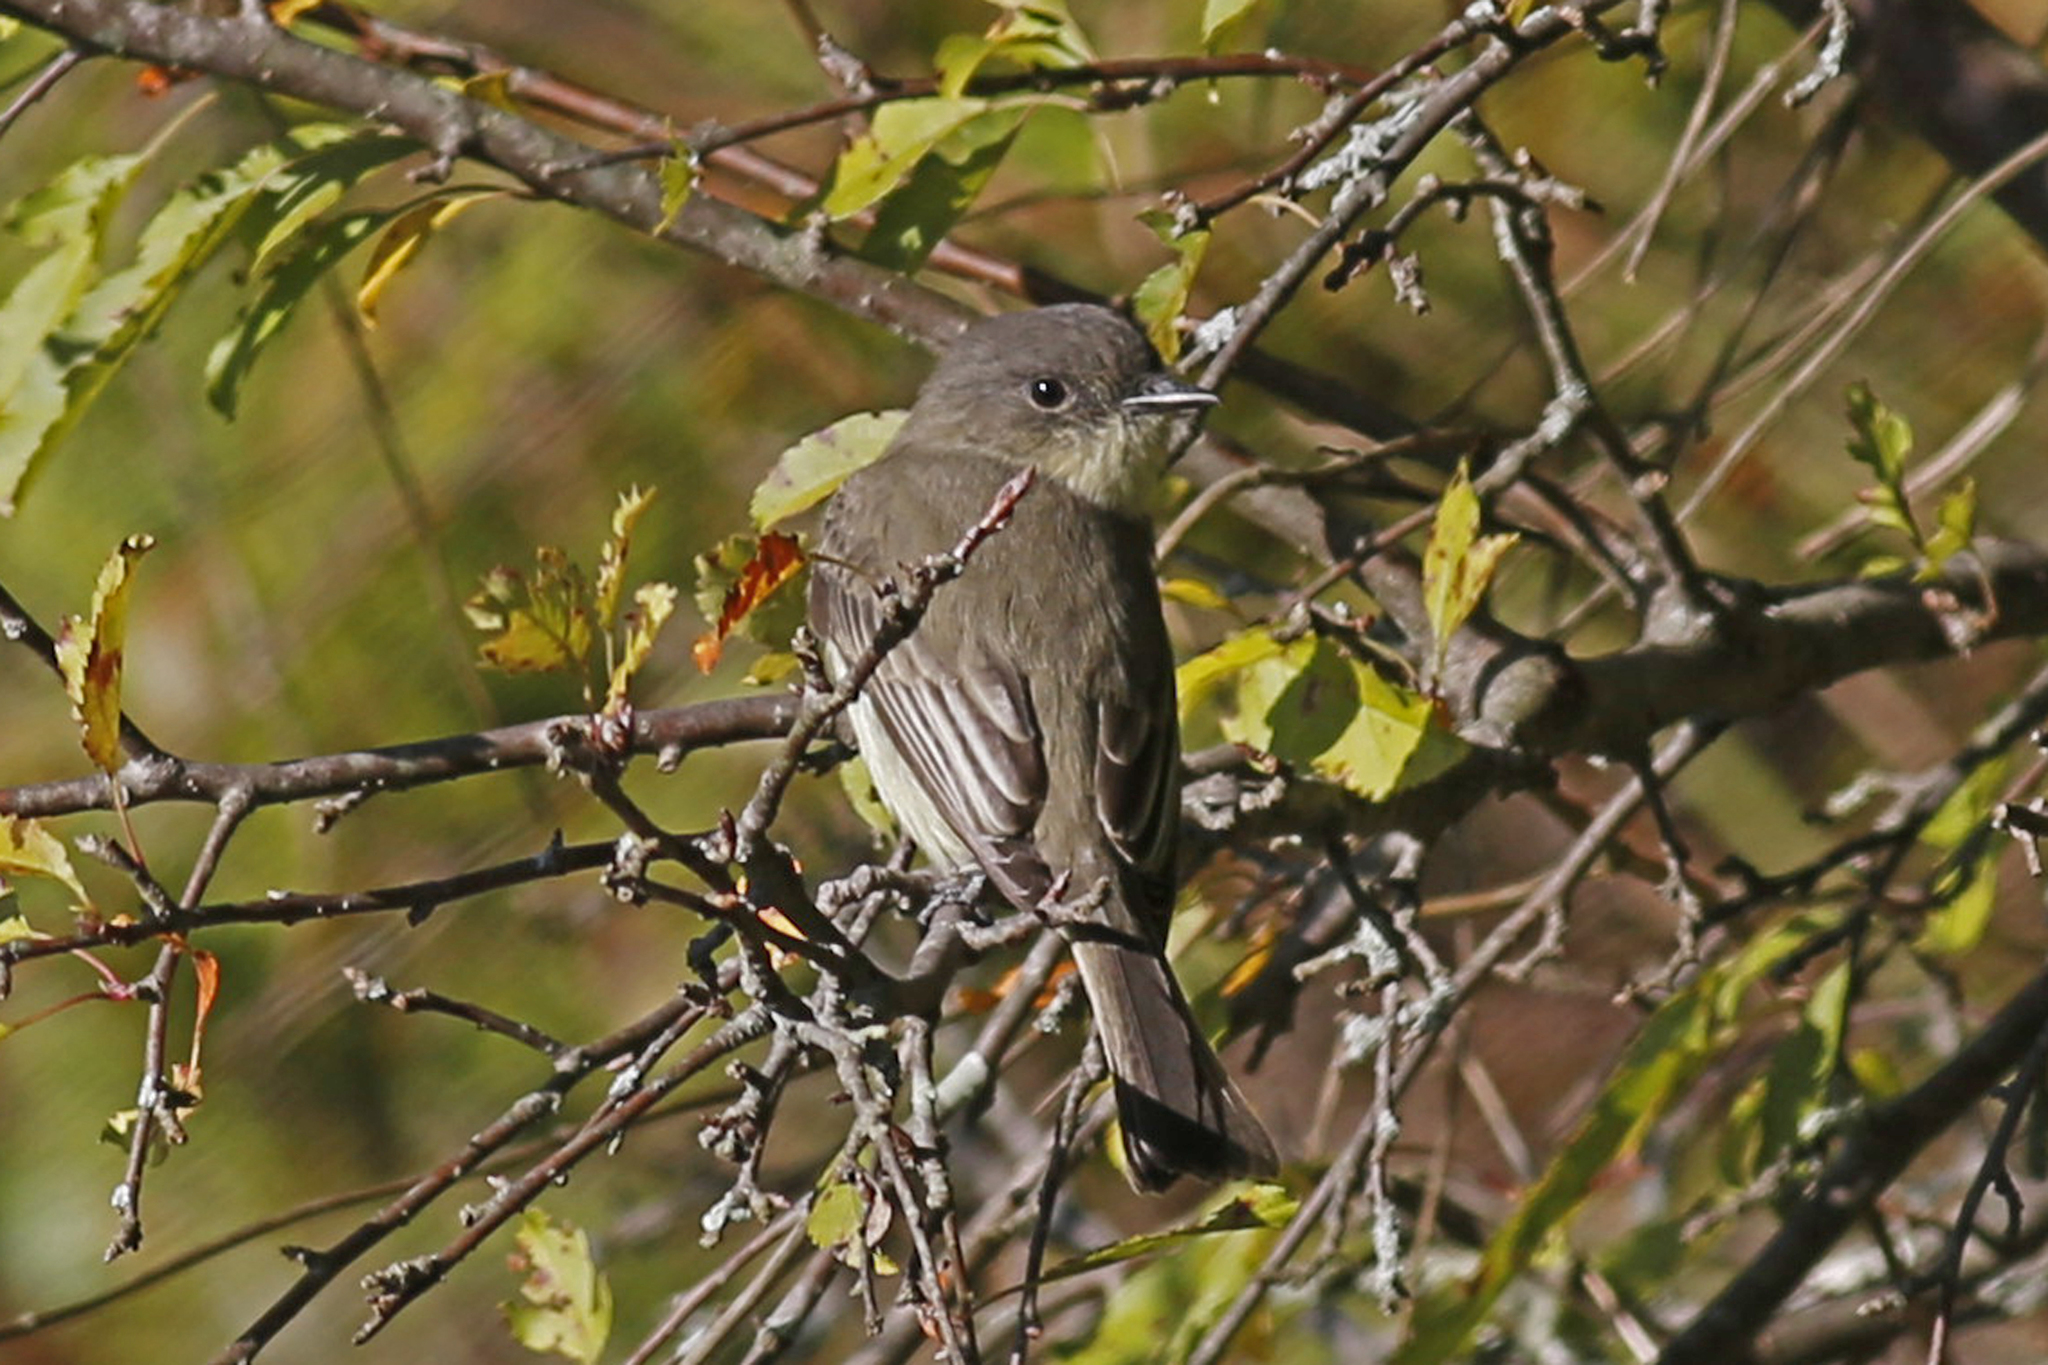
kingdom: Animalia
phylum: Chordata
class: Aves
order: Passeriformes
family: Tyrannidae
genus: Sayornis
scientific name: Sayornis phoebe
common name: Eastern phoebe
